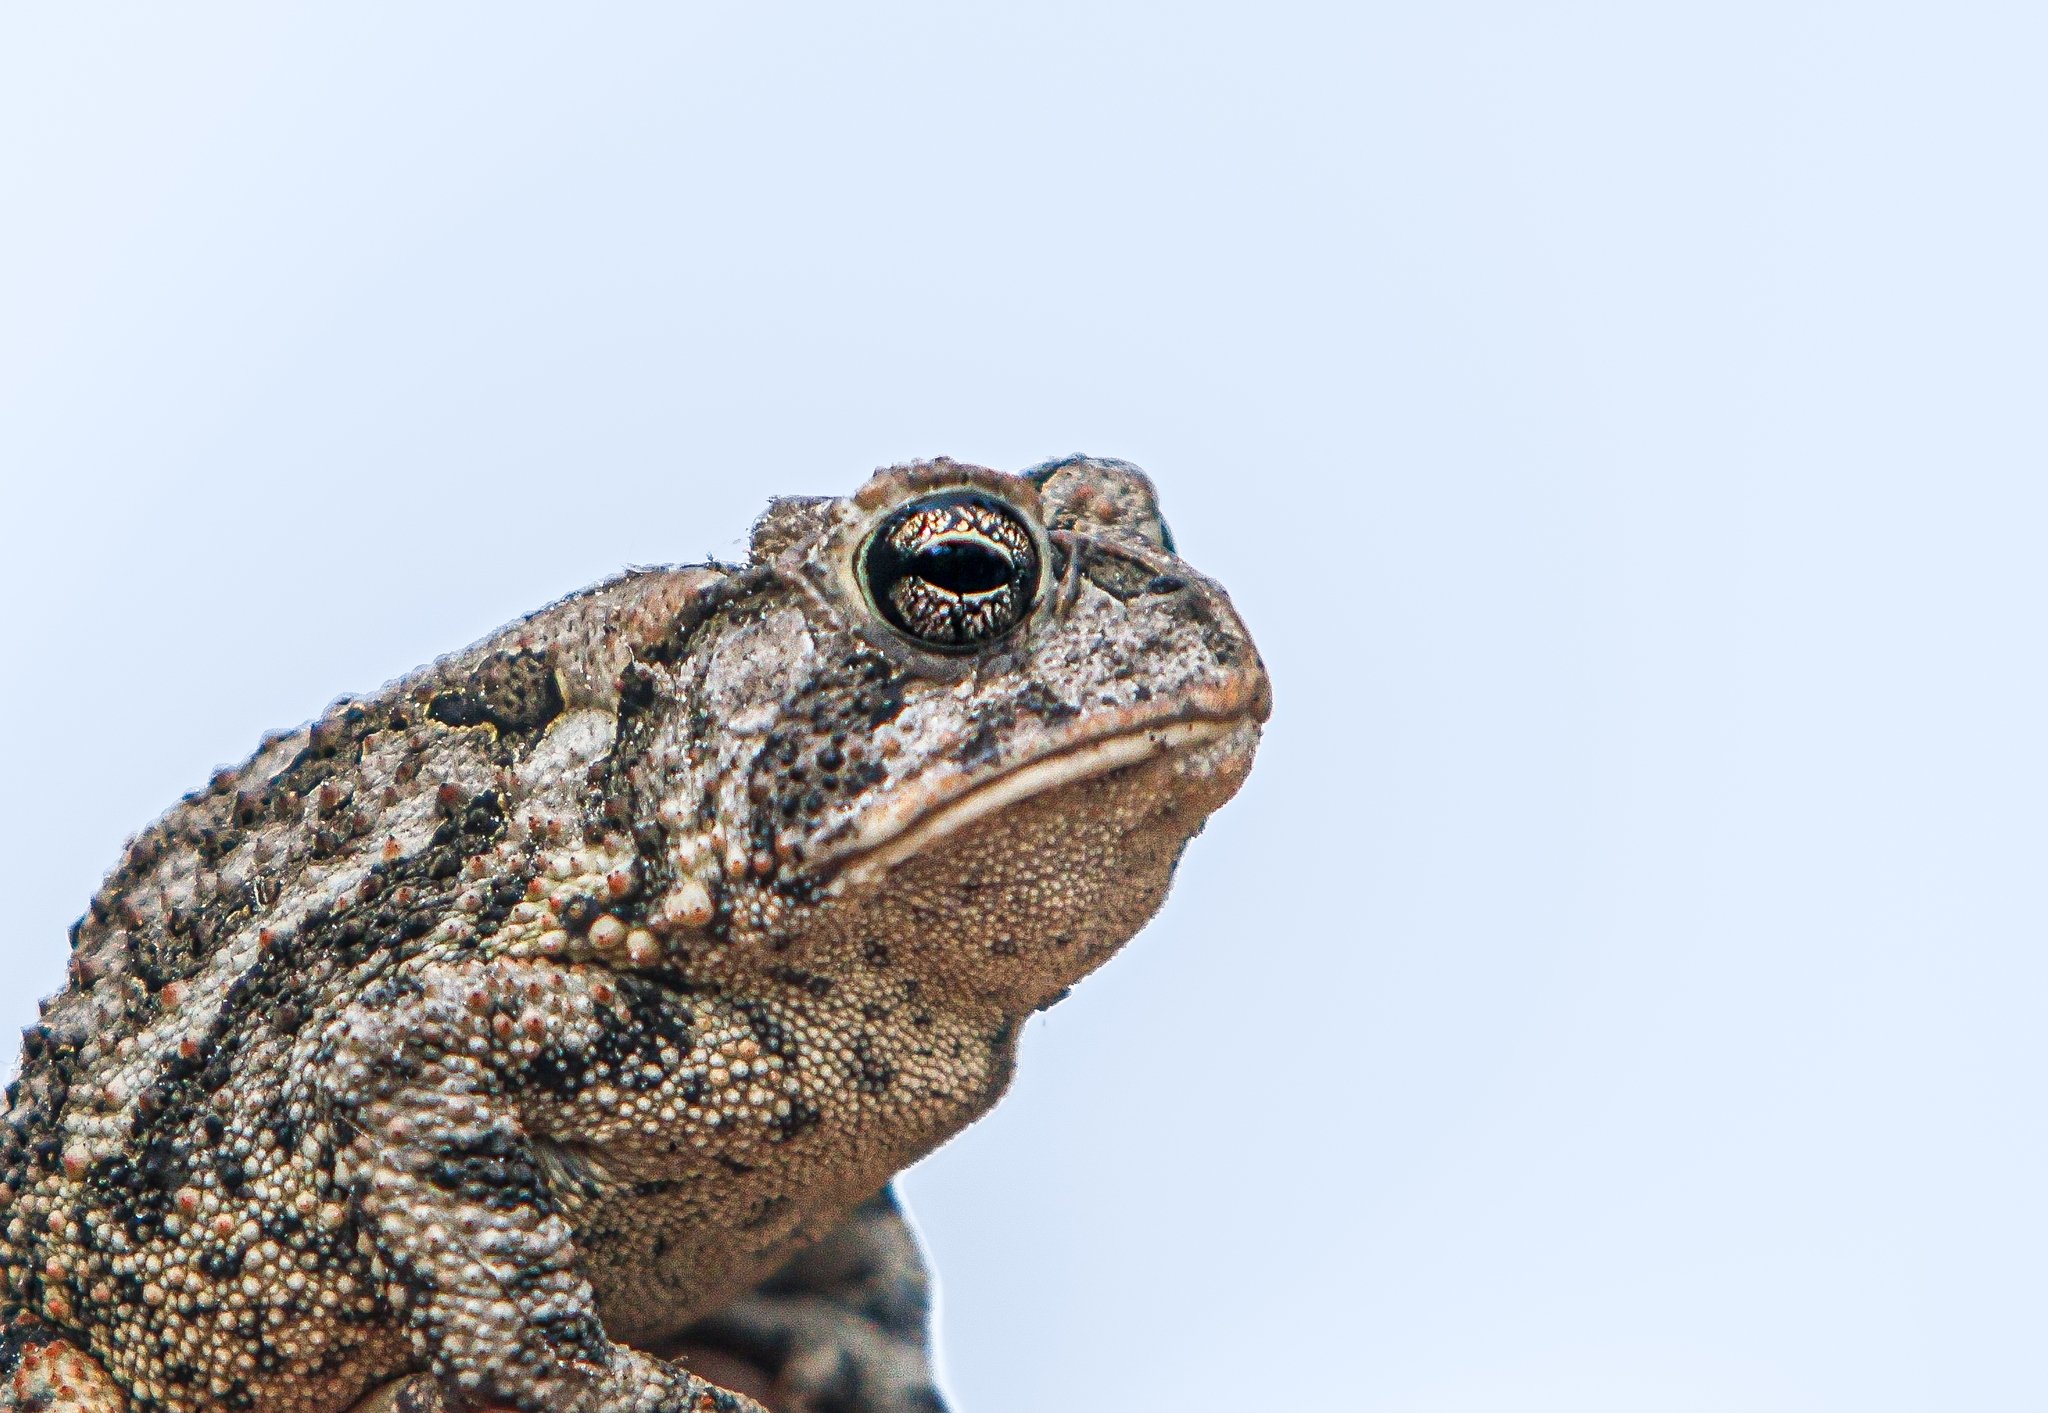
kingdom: Animalia
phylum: Chordata
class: Amphibia
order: Anura
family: Bufonidae
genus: Anaxyrus
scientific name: Anaxyrus terrestris
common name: Southern toad
